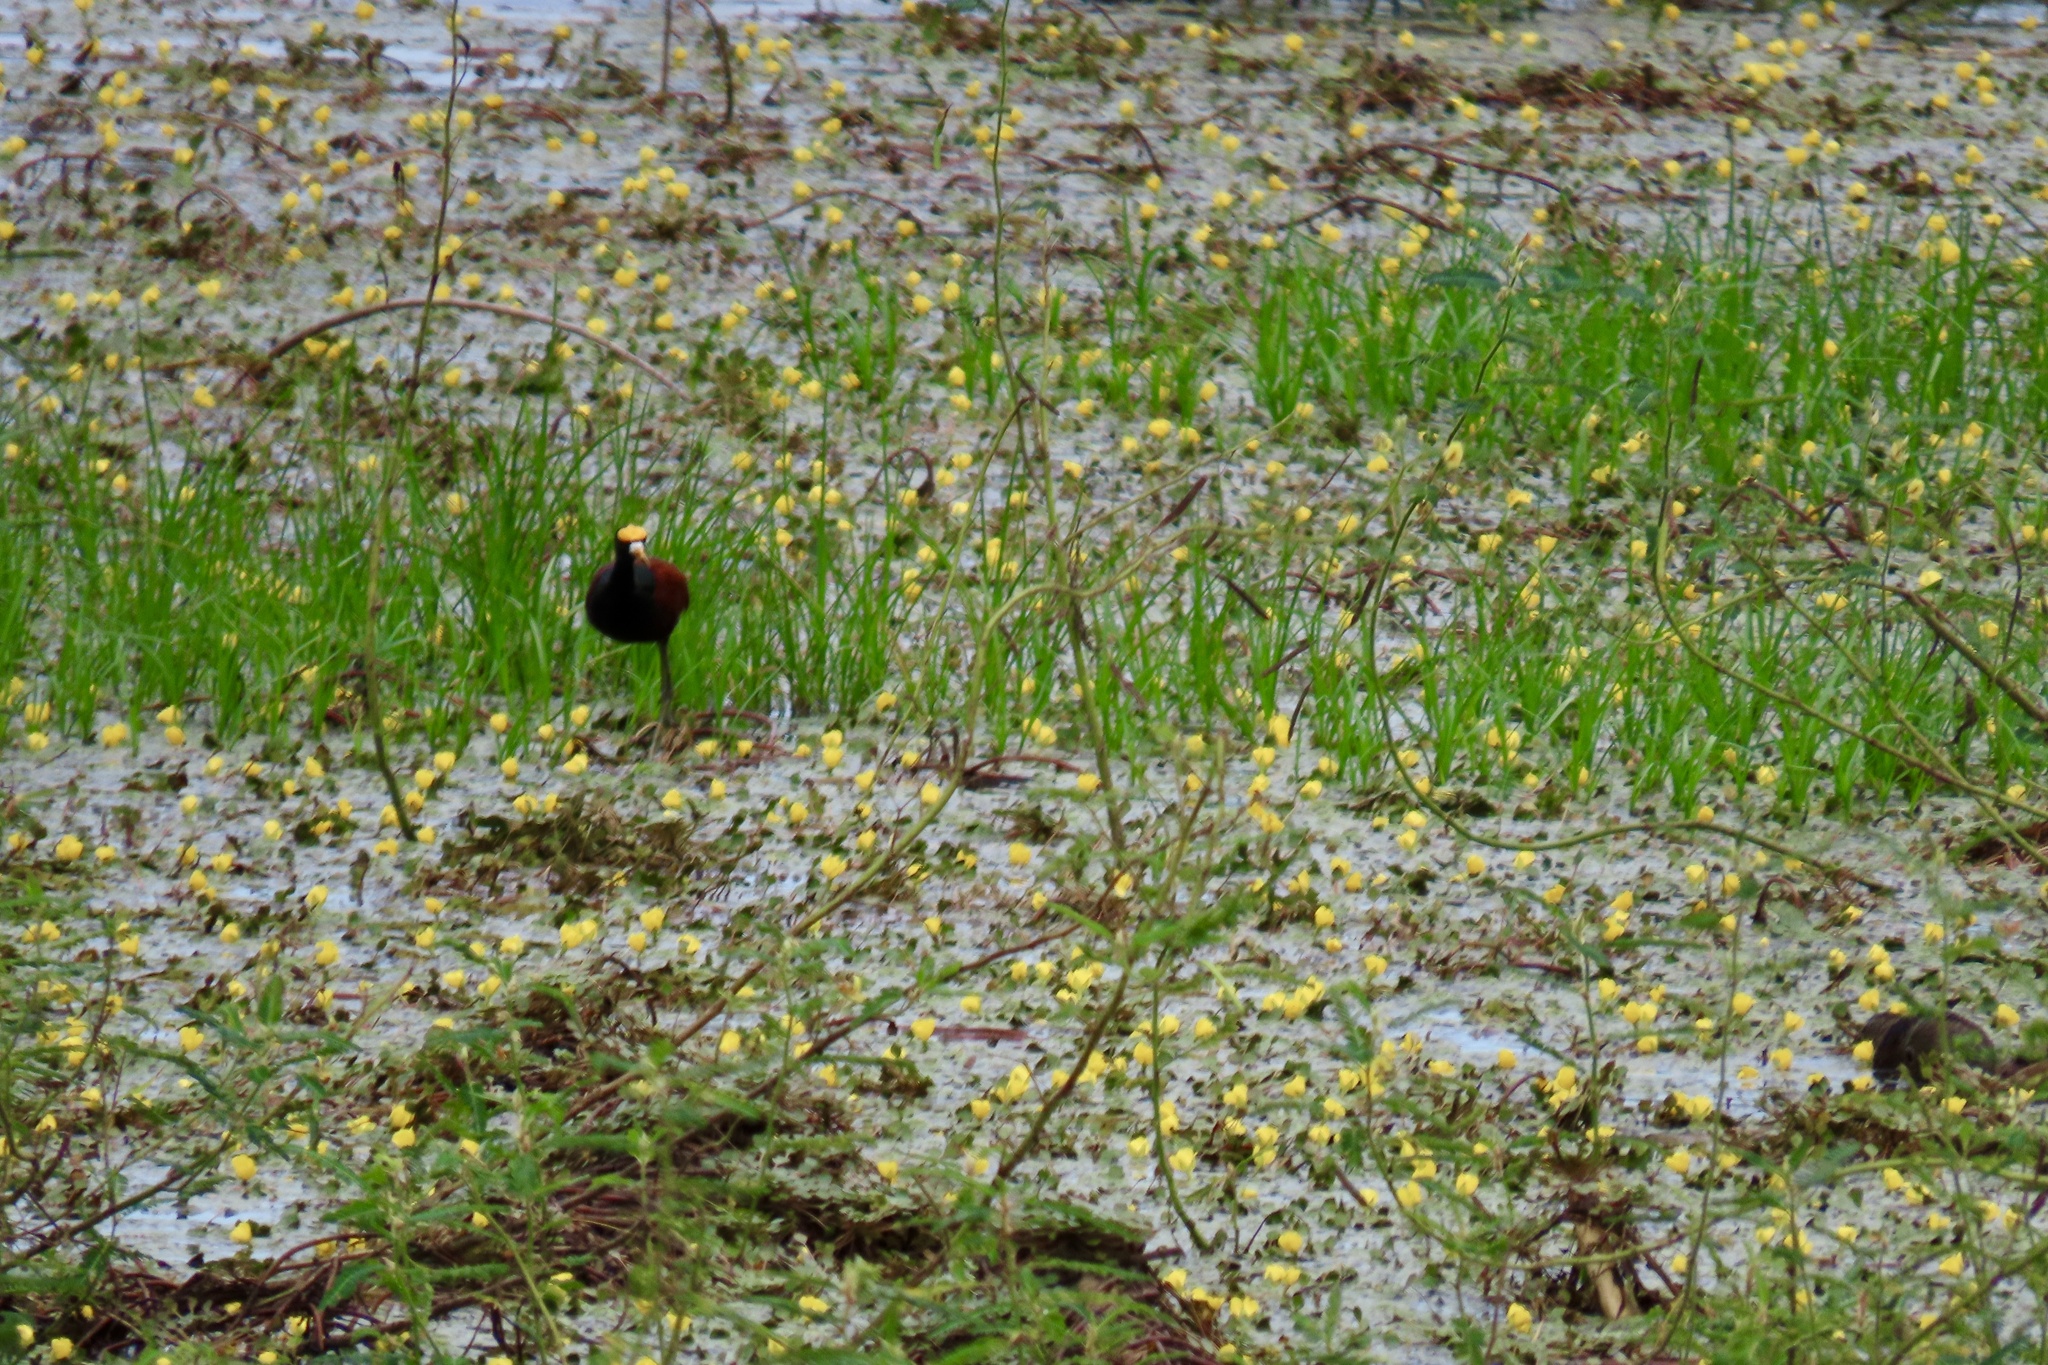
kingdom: Animalia
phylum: Chordata
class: Aves
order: Charadriiformes
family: Jacanidae
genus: Jacana
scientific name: Jacana spinosa
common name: Northern jacana
